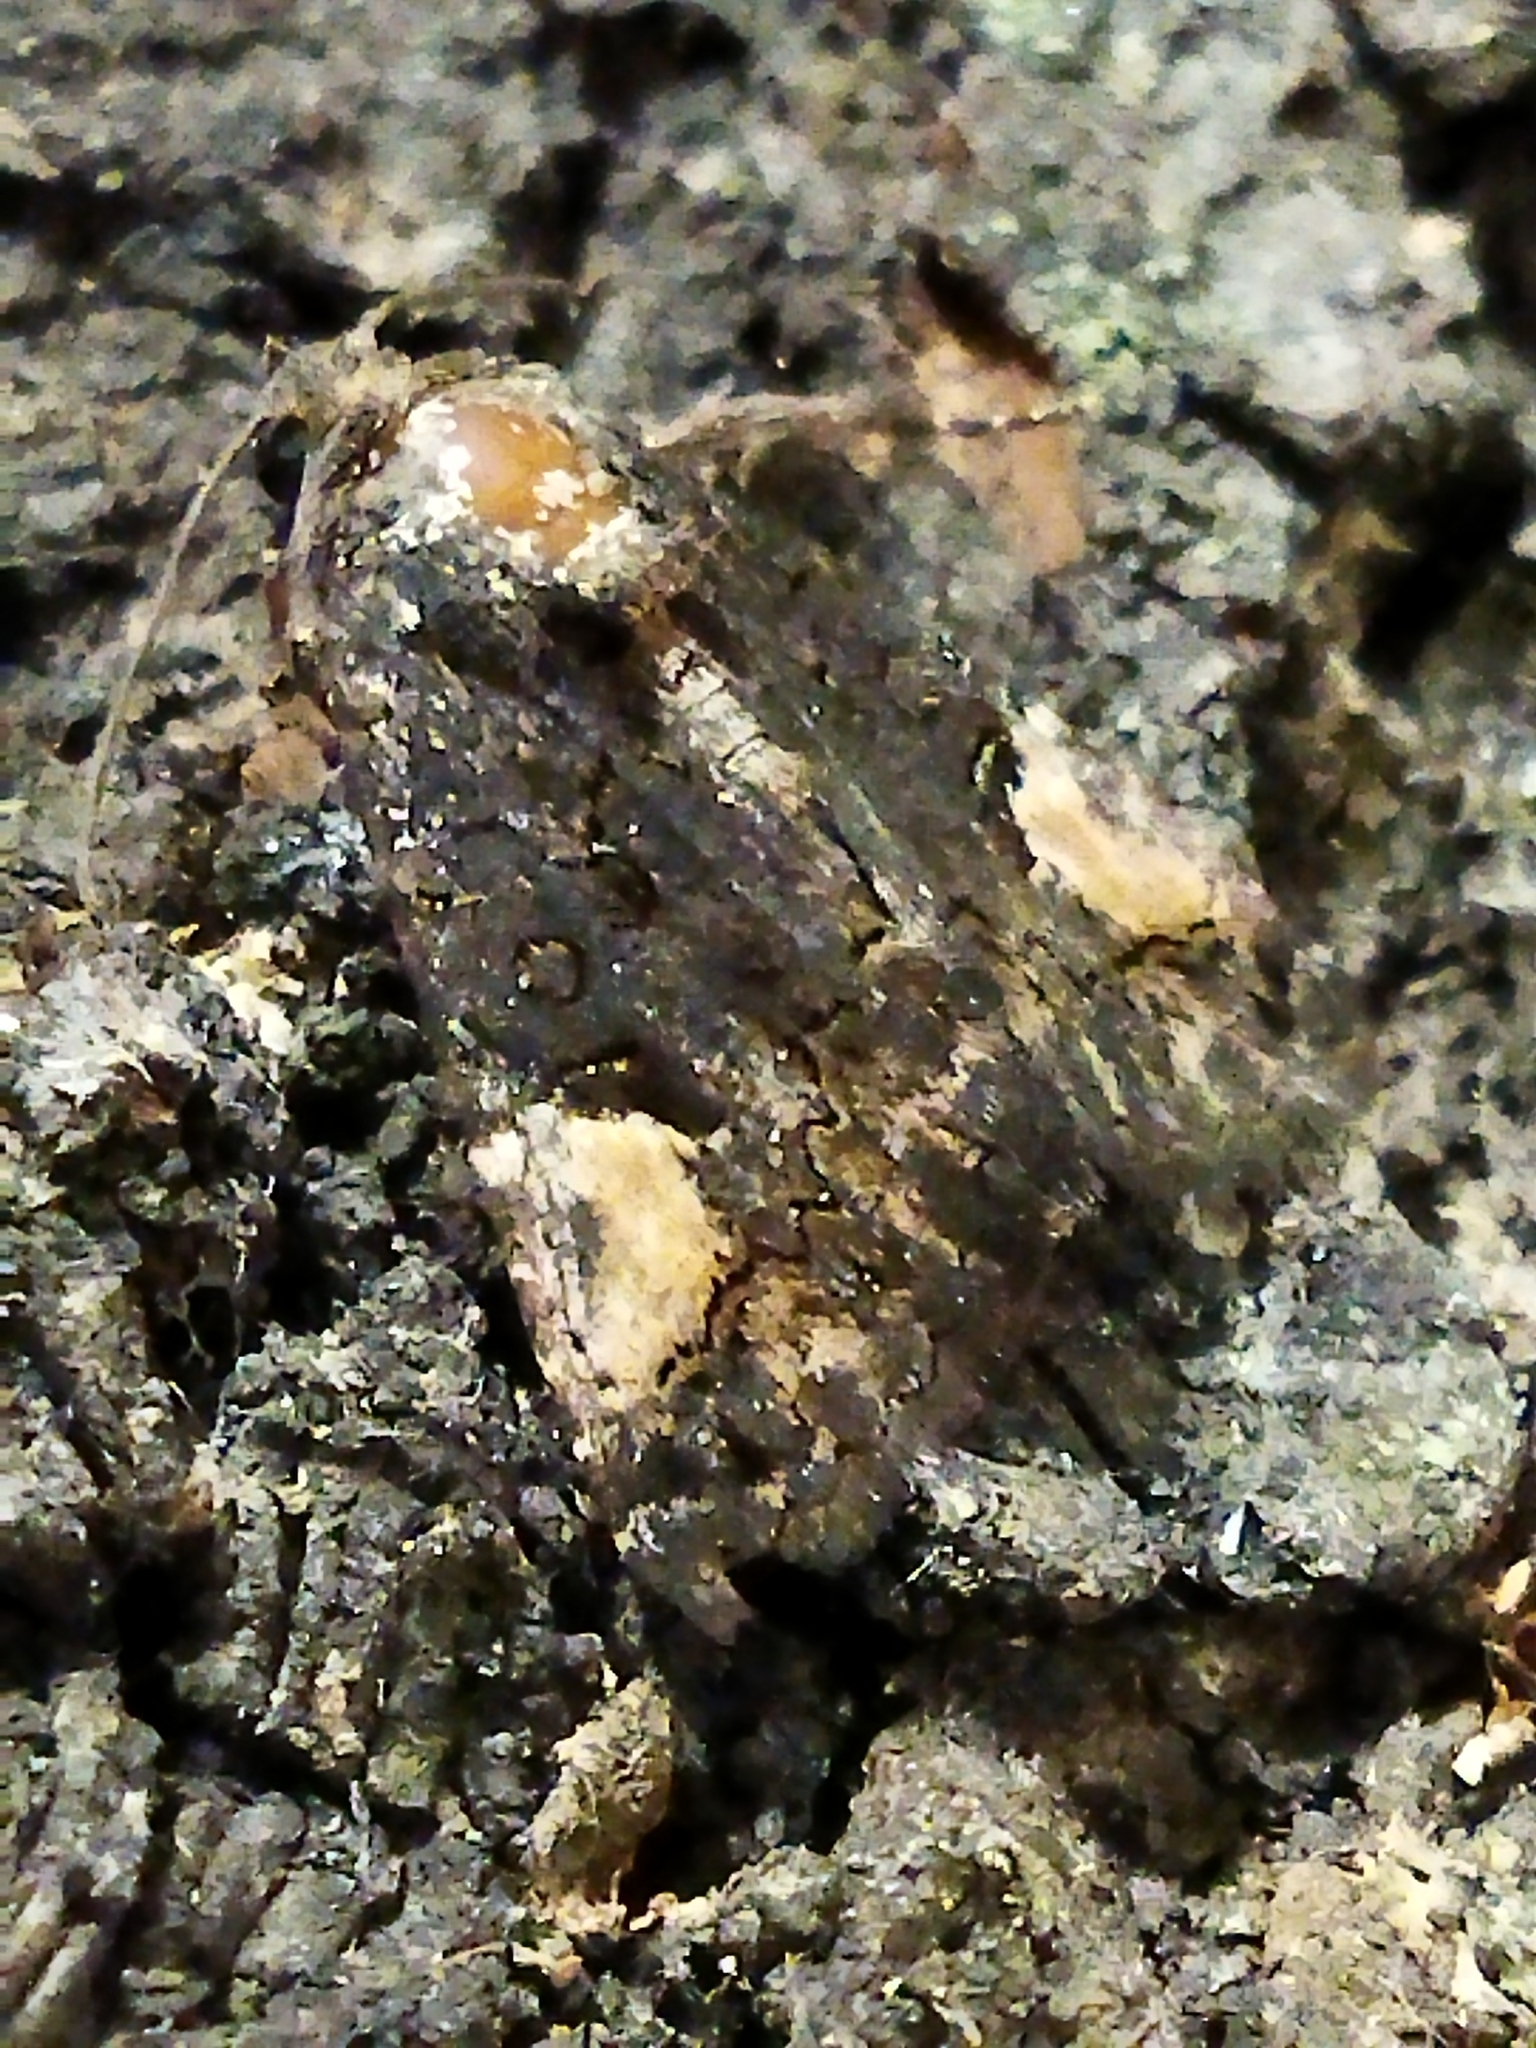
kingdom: Animalia
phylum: Arthropoda
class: Insecta
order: Lepidoptera
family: Noctuidae
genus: Aedia
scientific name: Aedia funesta
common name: The druid
